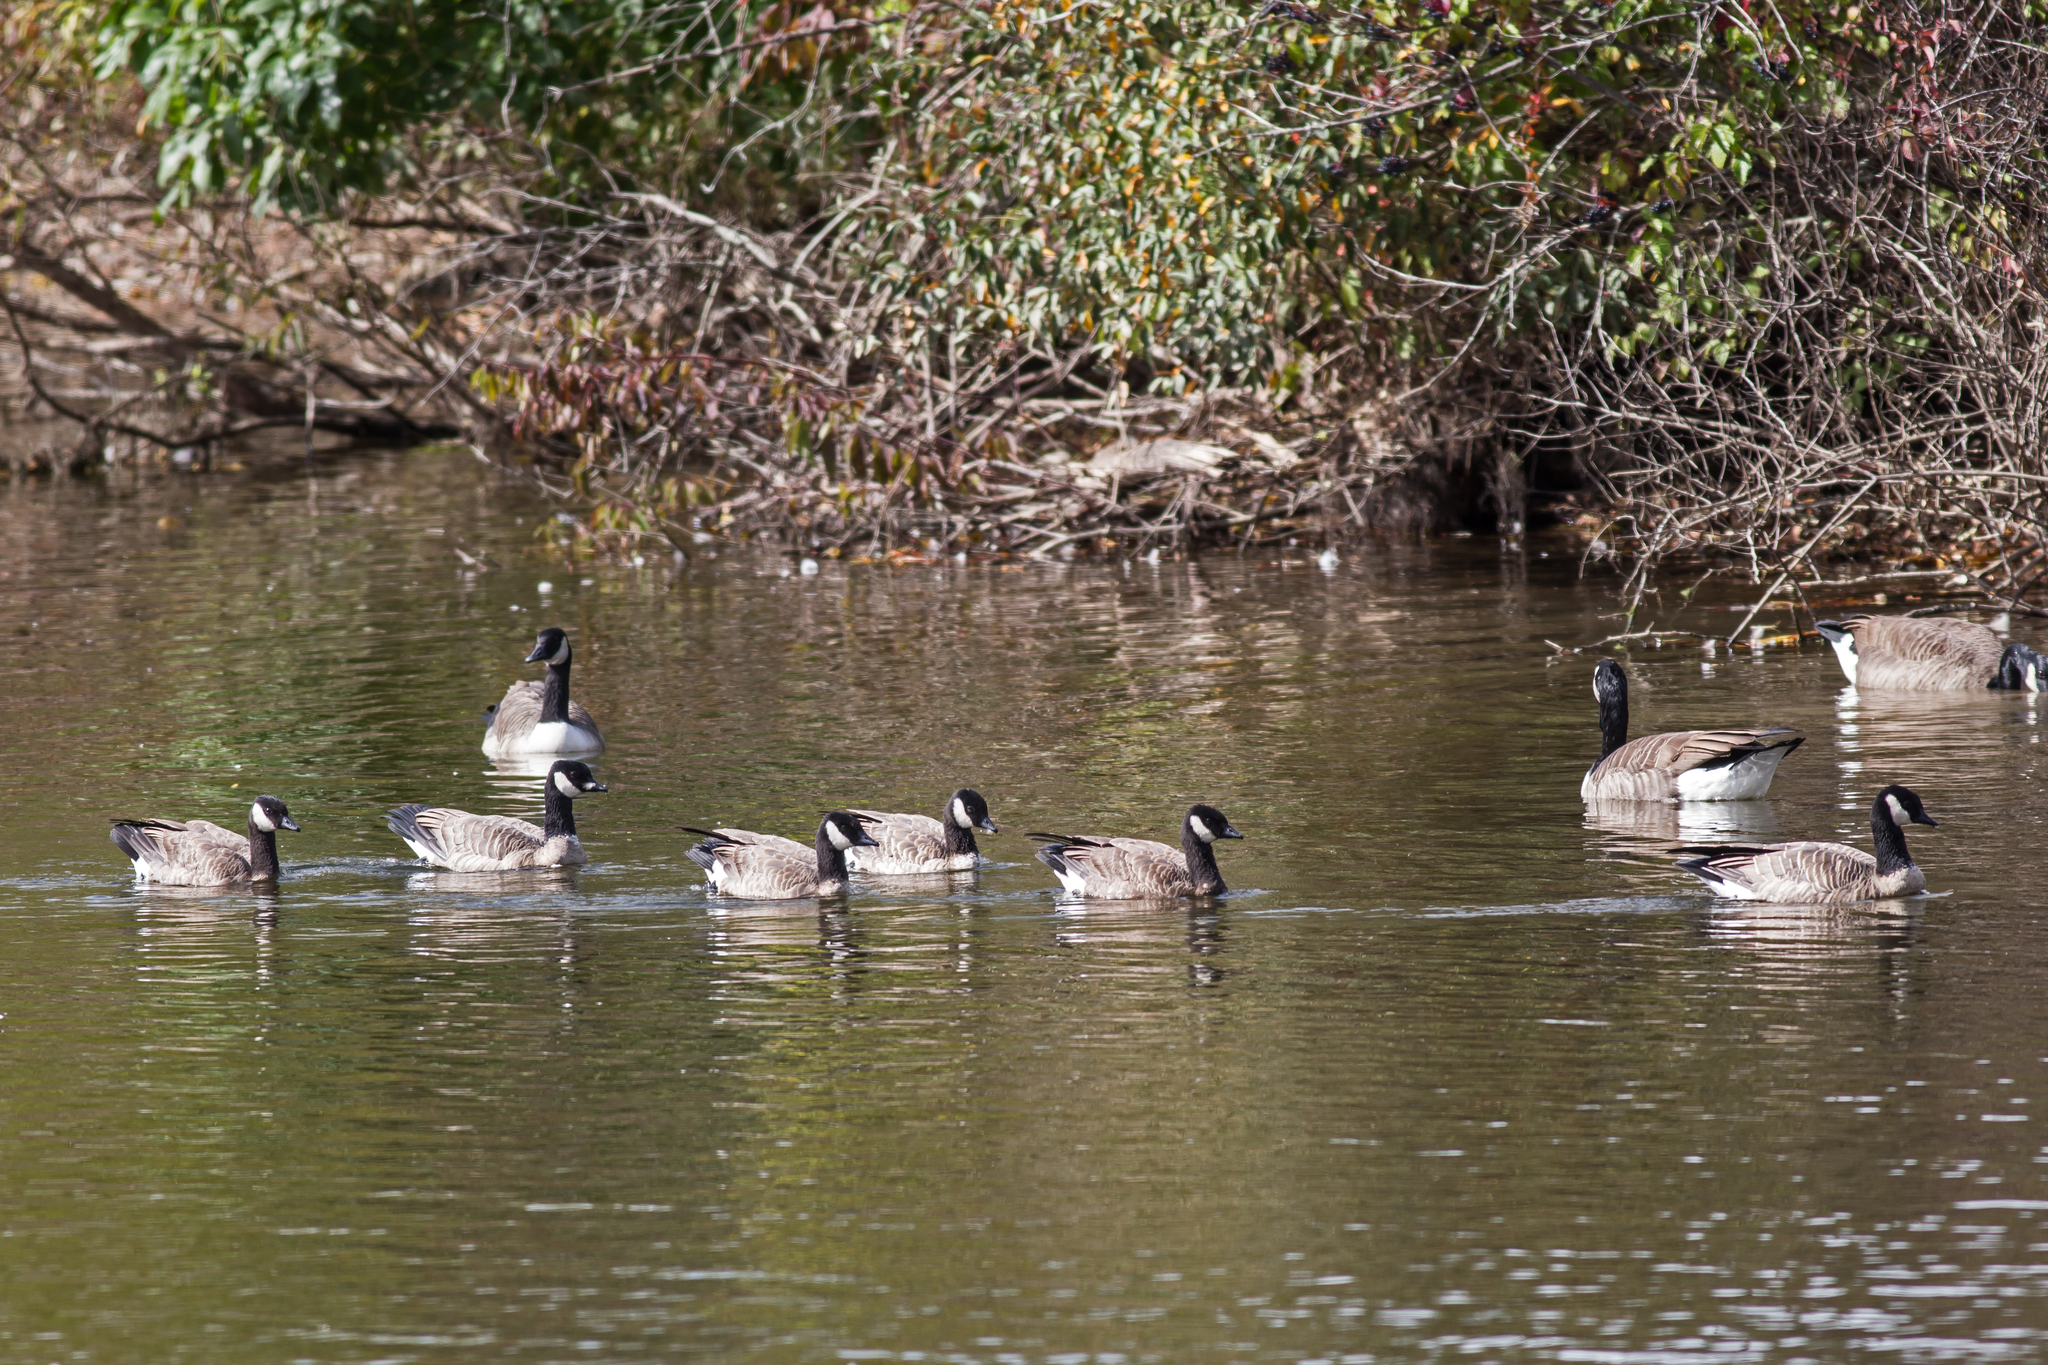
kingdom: Animalia
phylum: Chordata
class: Aves
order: Anseriformes
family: Anatidae
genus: Branta
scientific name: Branta hutchinsii
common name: Cackling goose
